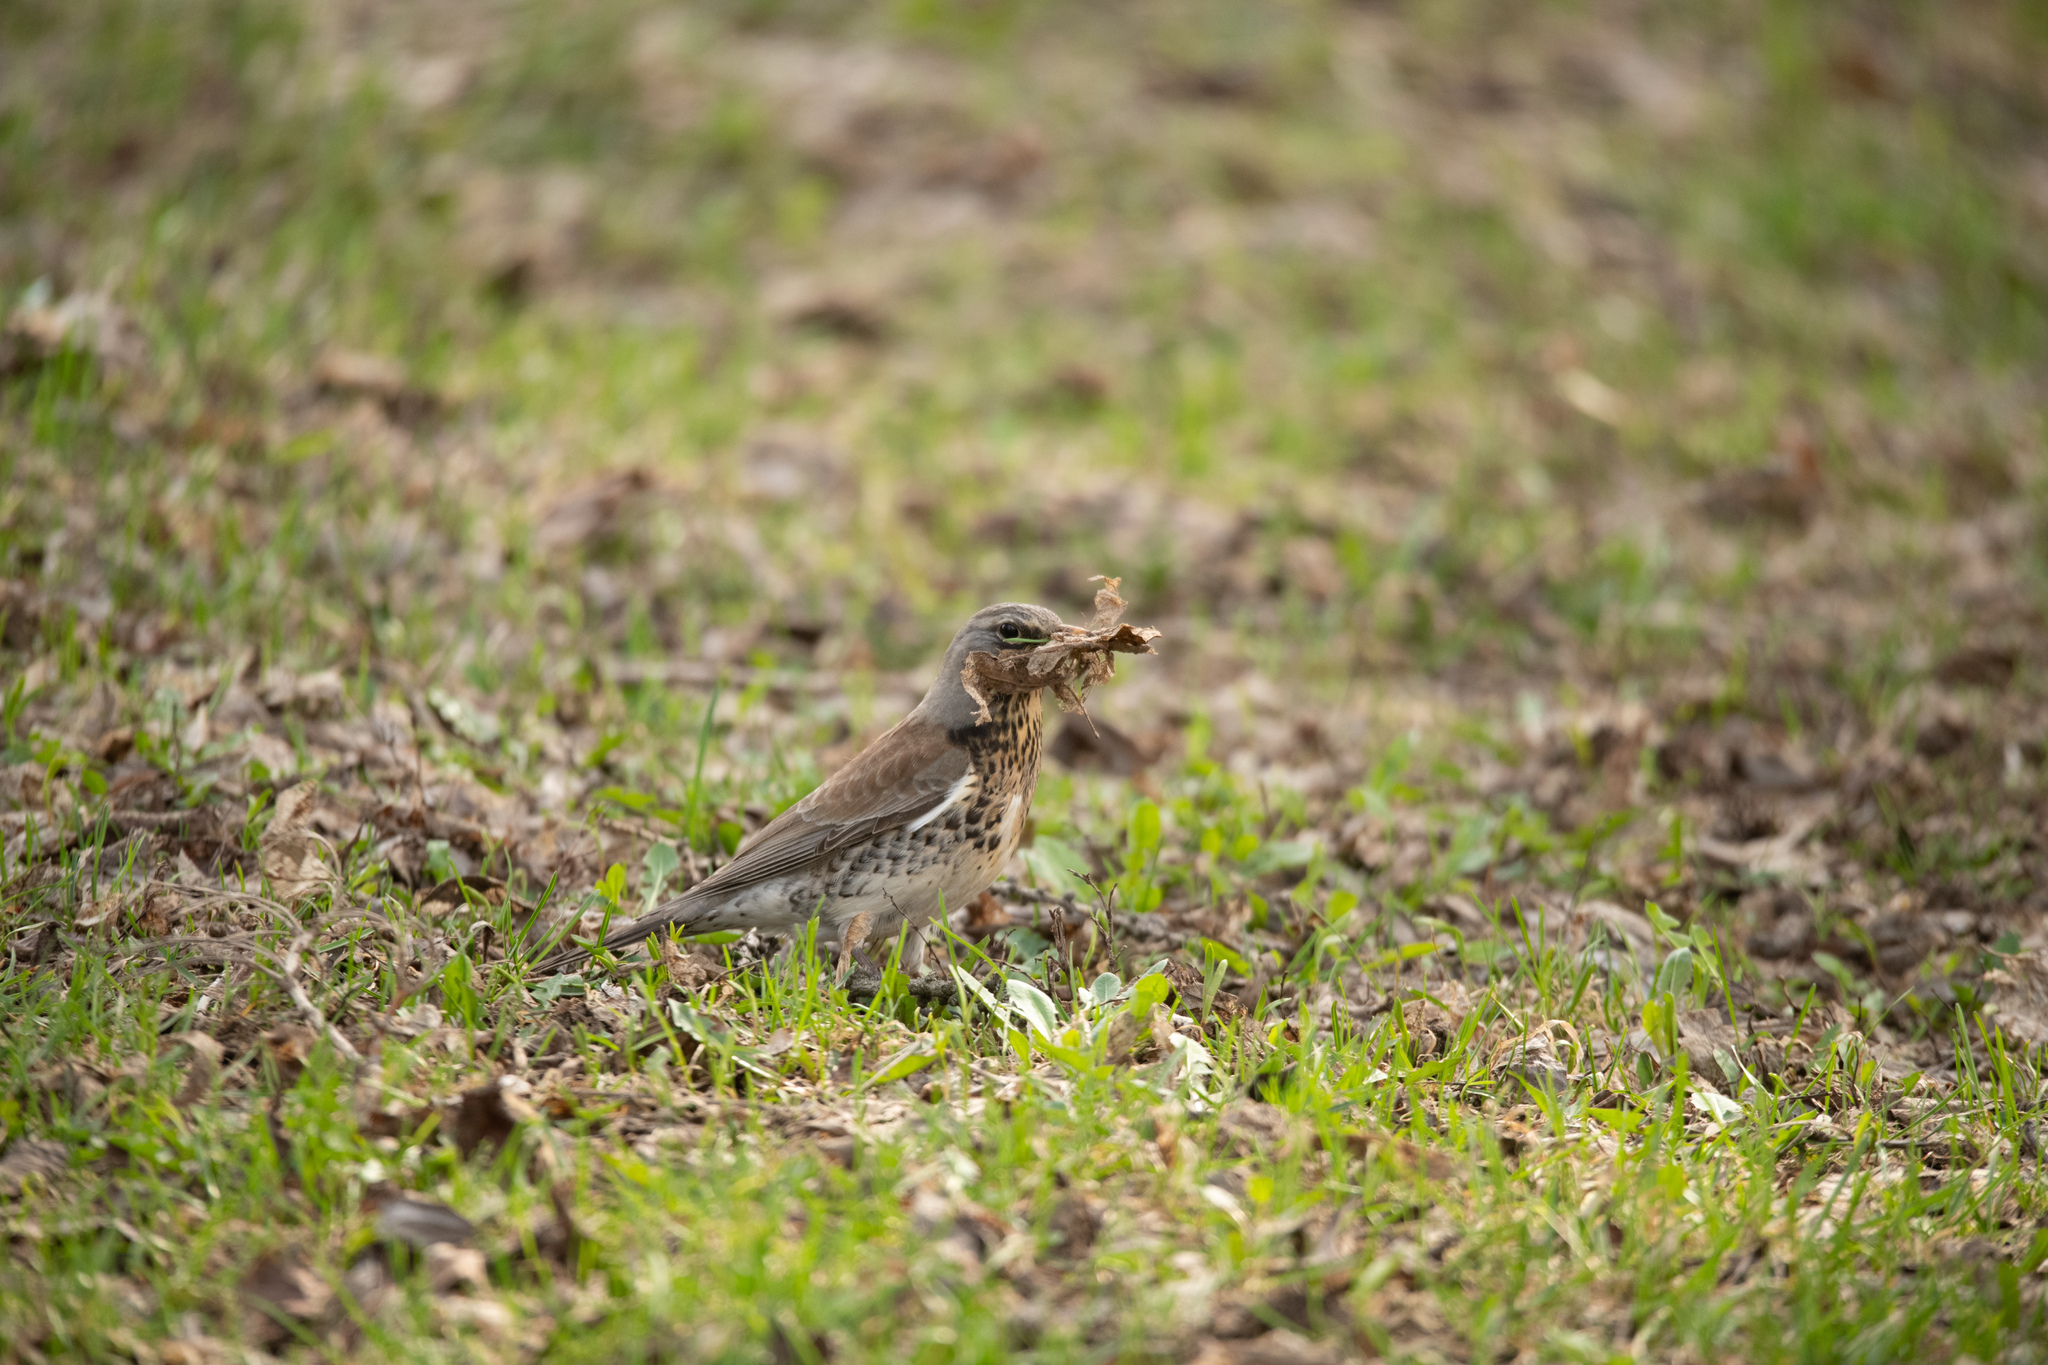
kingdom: Animalia
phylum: Chordata
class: Aves
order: Passeriformes
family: Turdidae
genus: Turdus
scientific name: Turdus pilaris
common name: Fieldfare
